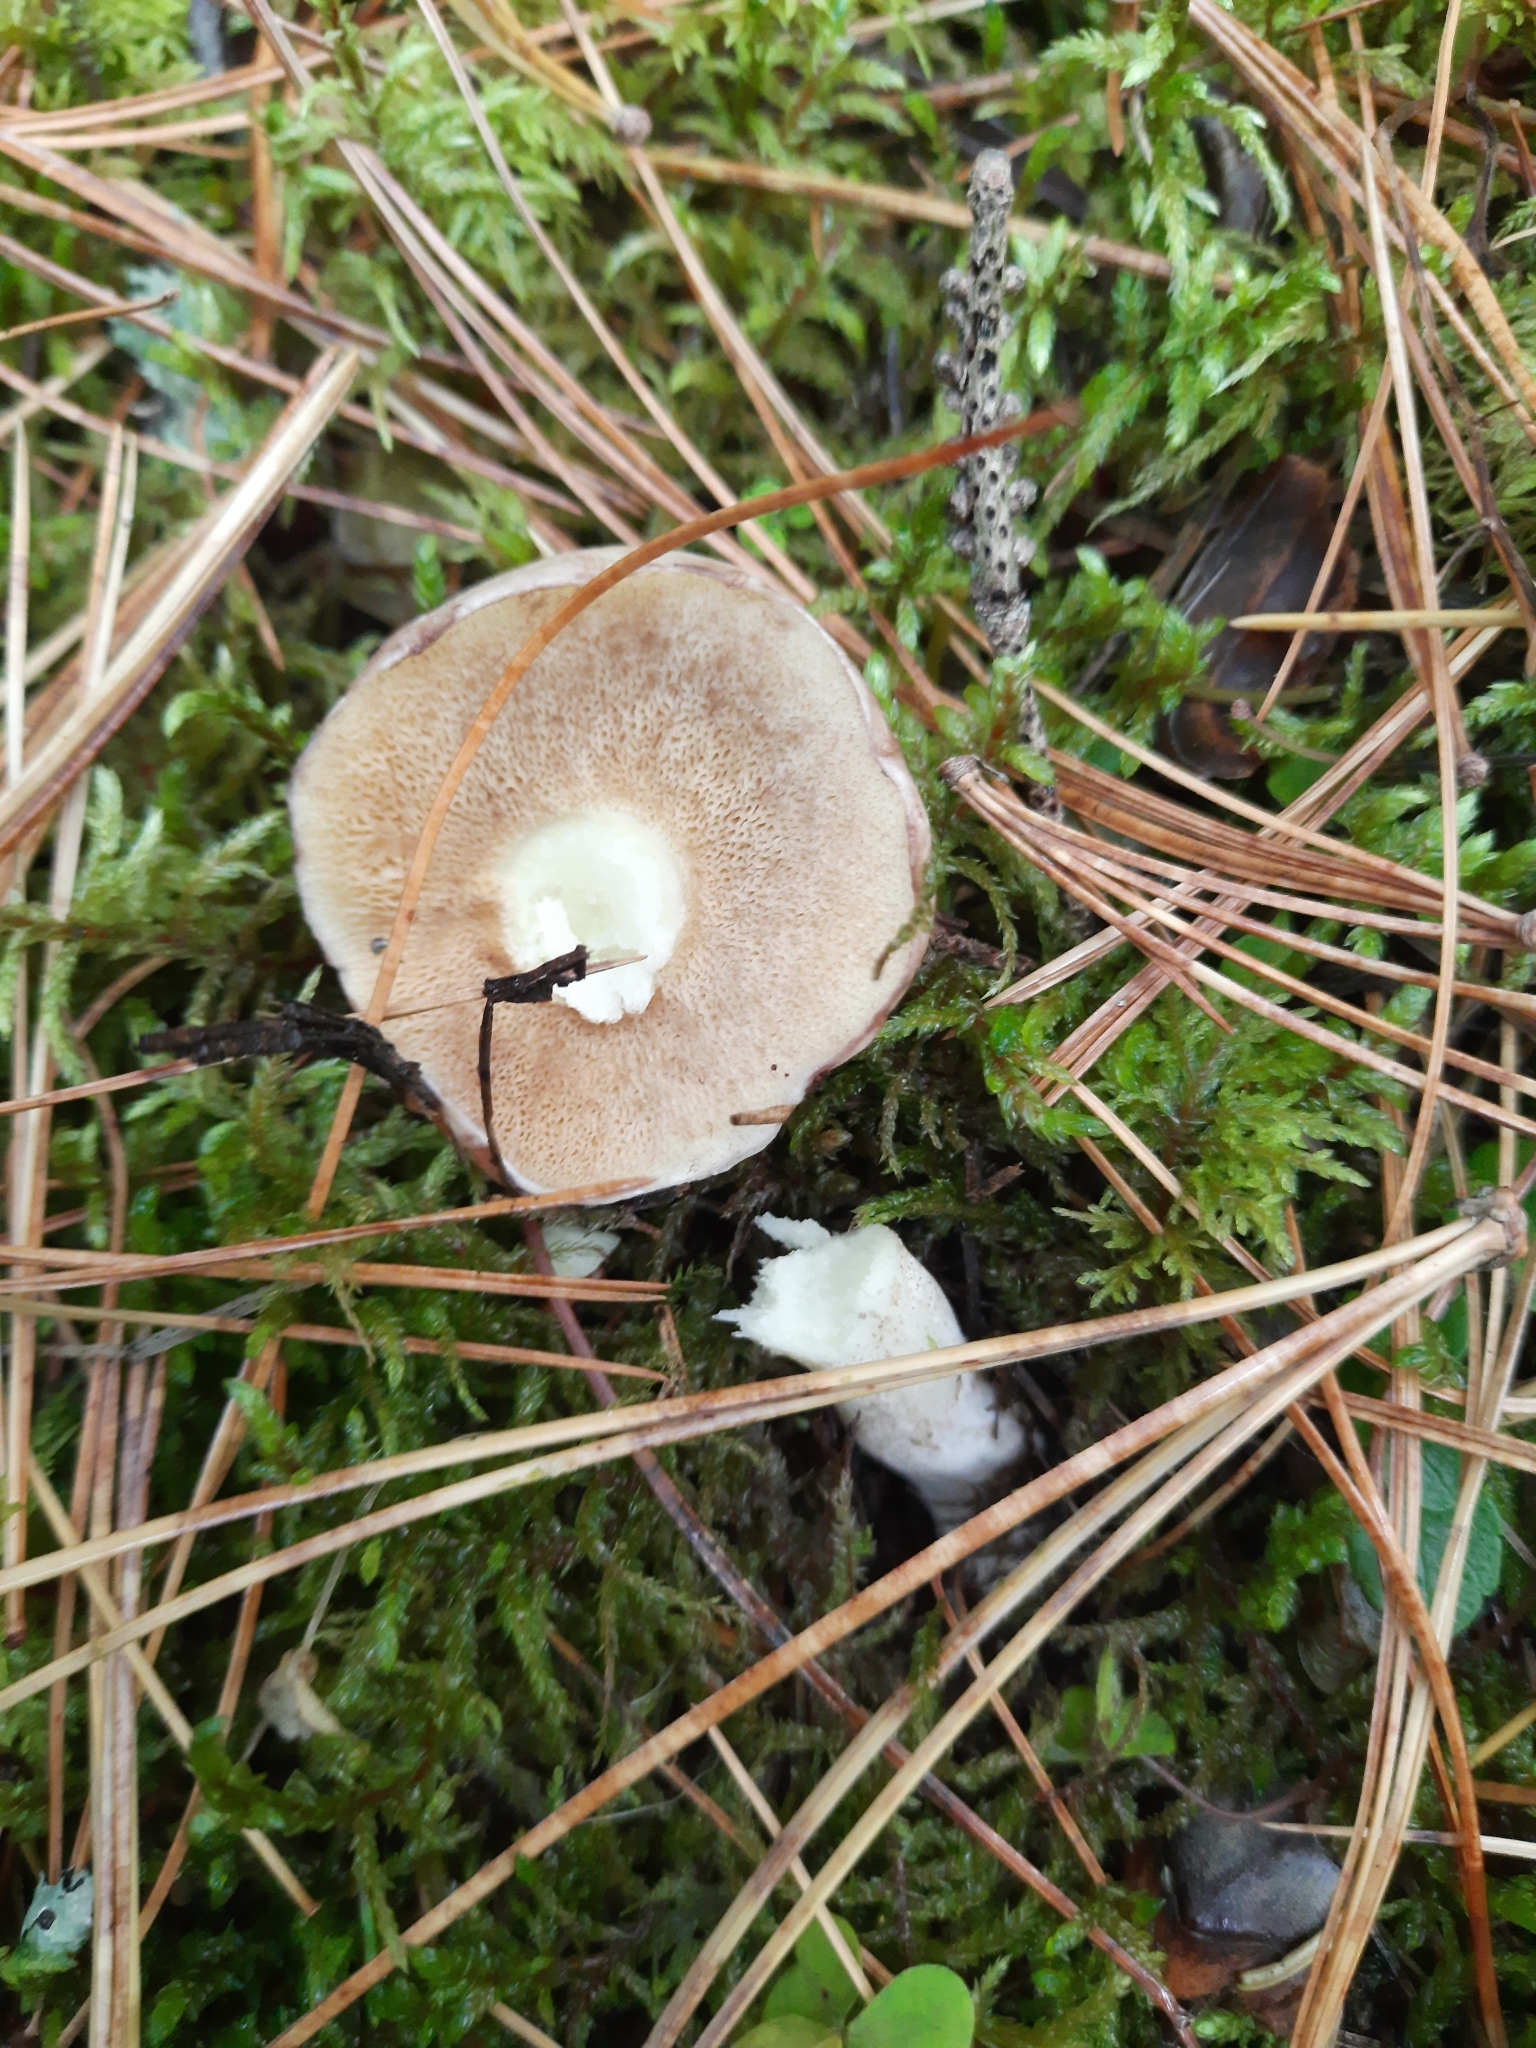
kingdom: Fungi
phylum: Basidiomycota
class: Agaricomycetes
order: Boletales
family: Suillaceae
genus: Suillus
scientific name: Suillus placidus
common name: Slippery white bolete
